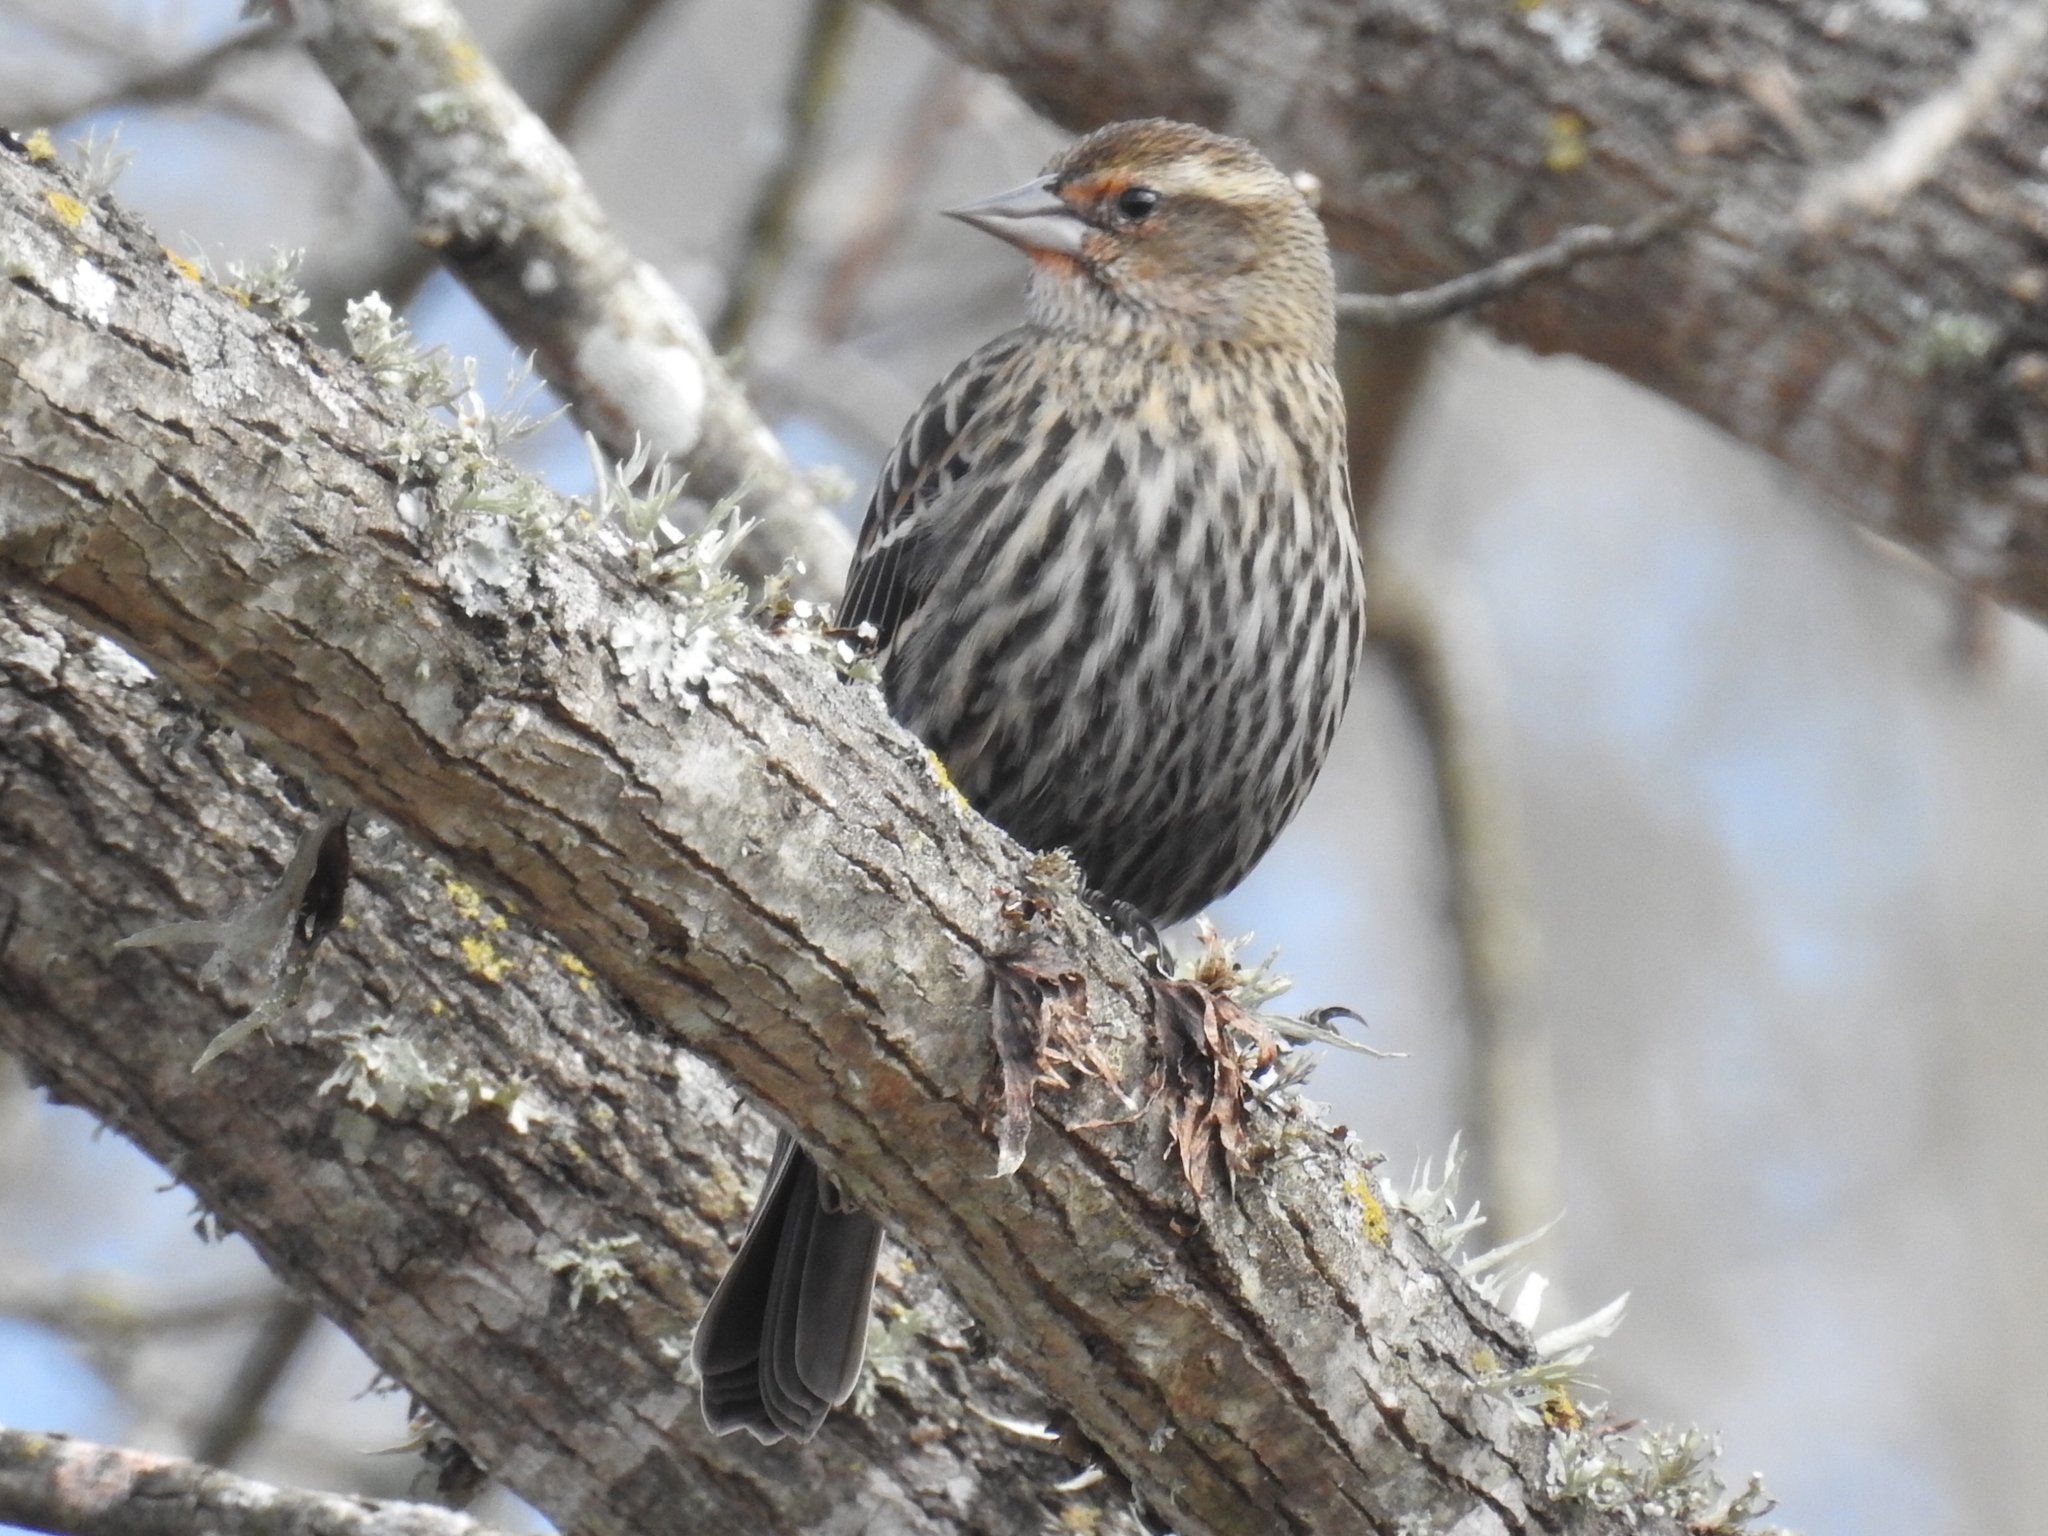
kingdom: Animalia
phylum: Chordata
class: Aves
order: Passeriformes
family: Icteridae
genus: Agelaius
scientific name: Agelaius phoeniceus
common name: Red-winged blackbird
